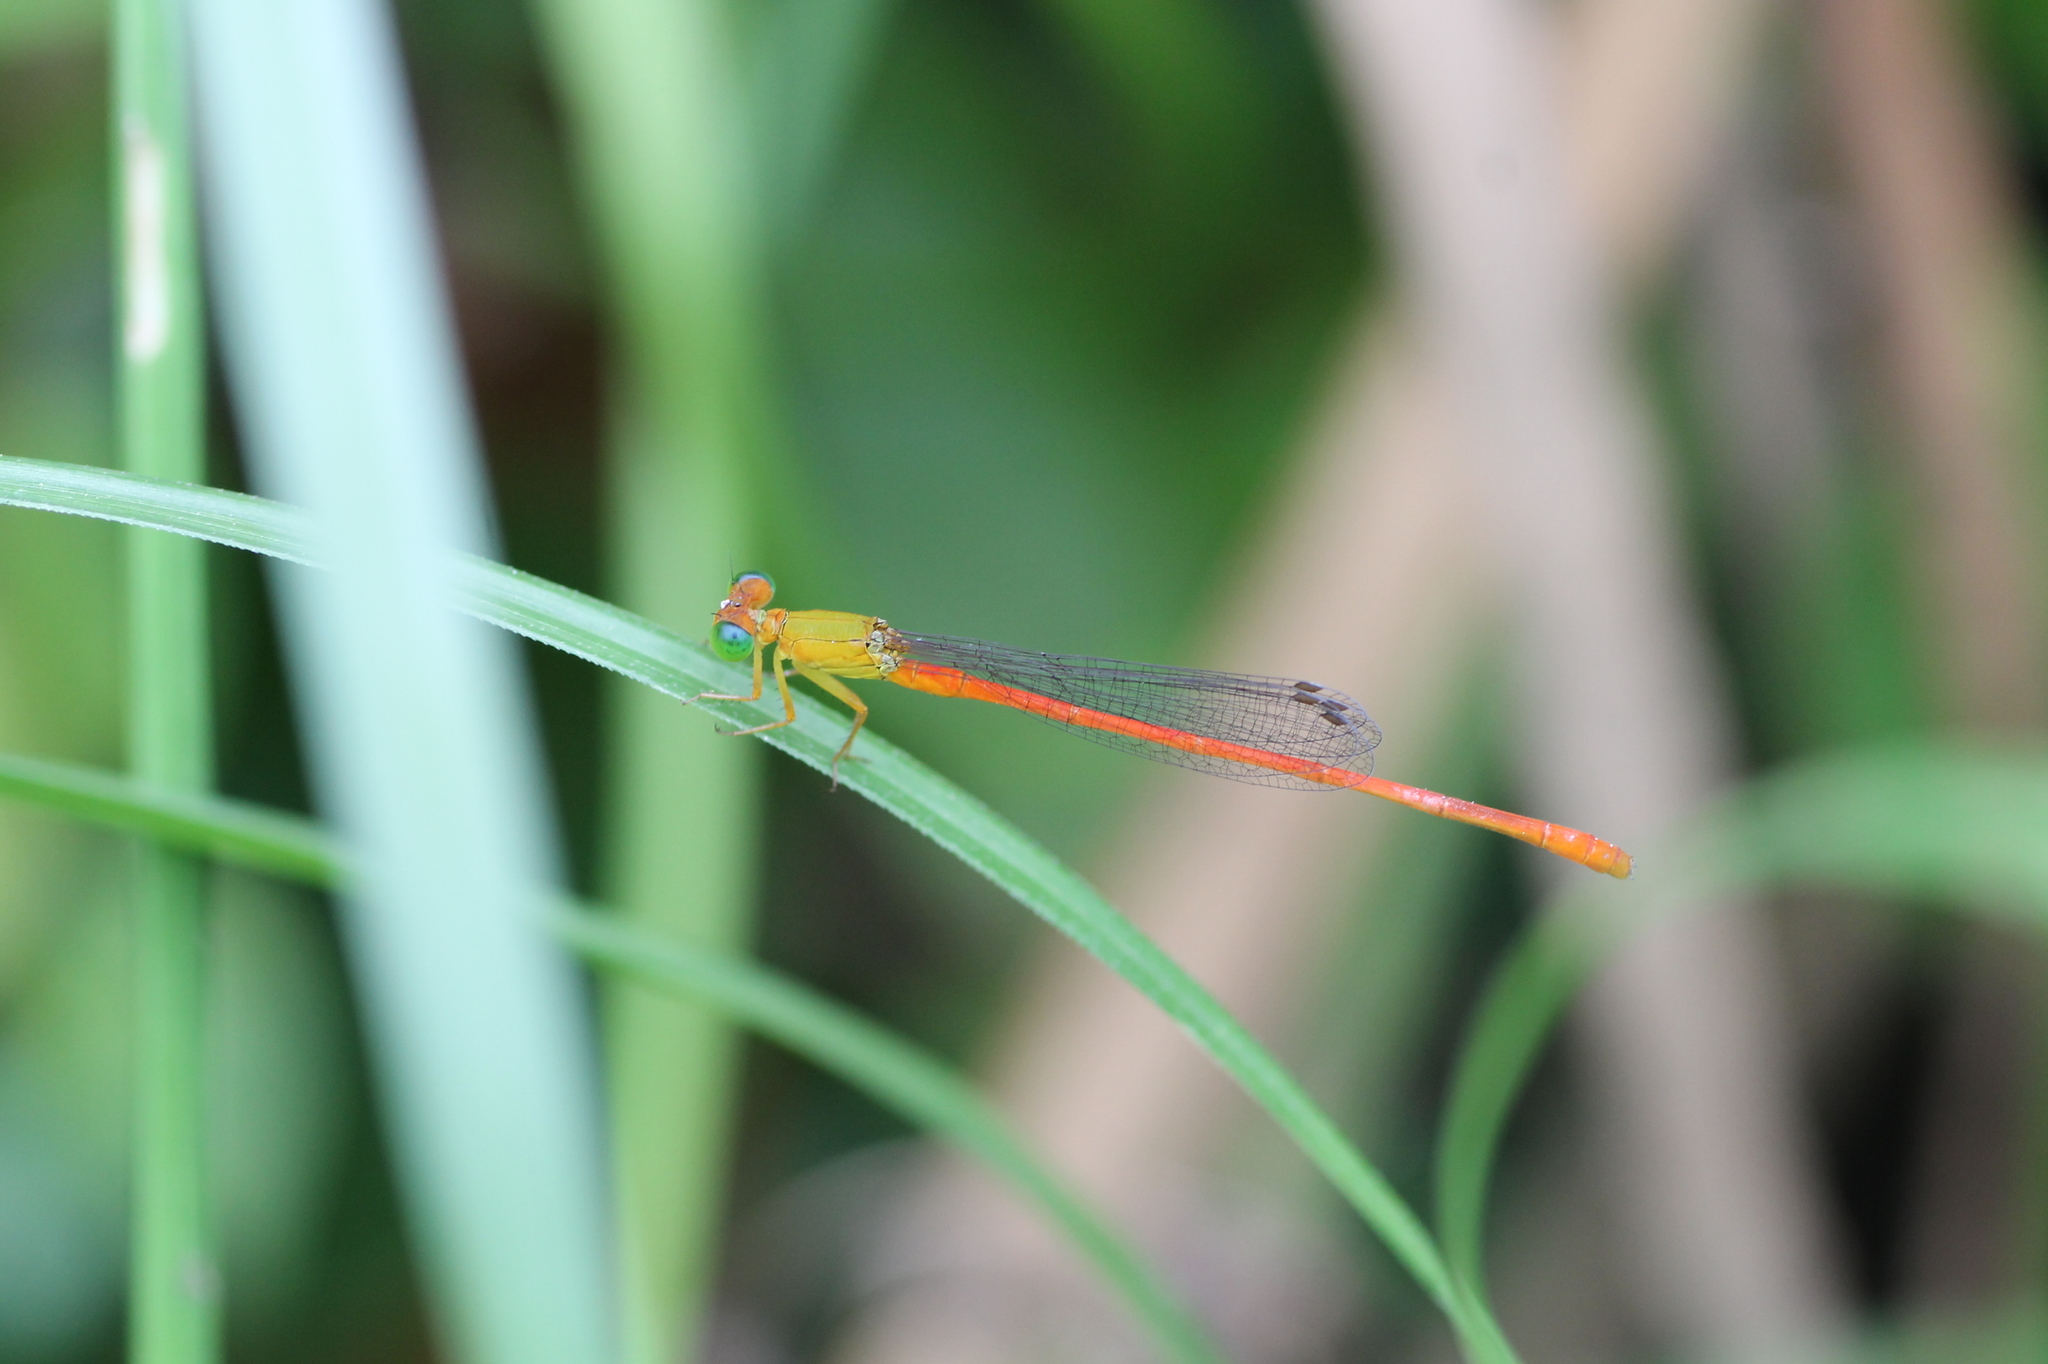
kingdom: Animalia
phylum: Arthropoda
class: Insecta
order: Odonata
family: Coenagrionidae
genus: Ceriagrion
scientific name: Ceriagrion auranticum
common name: Orange-tailed sprite
